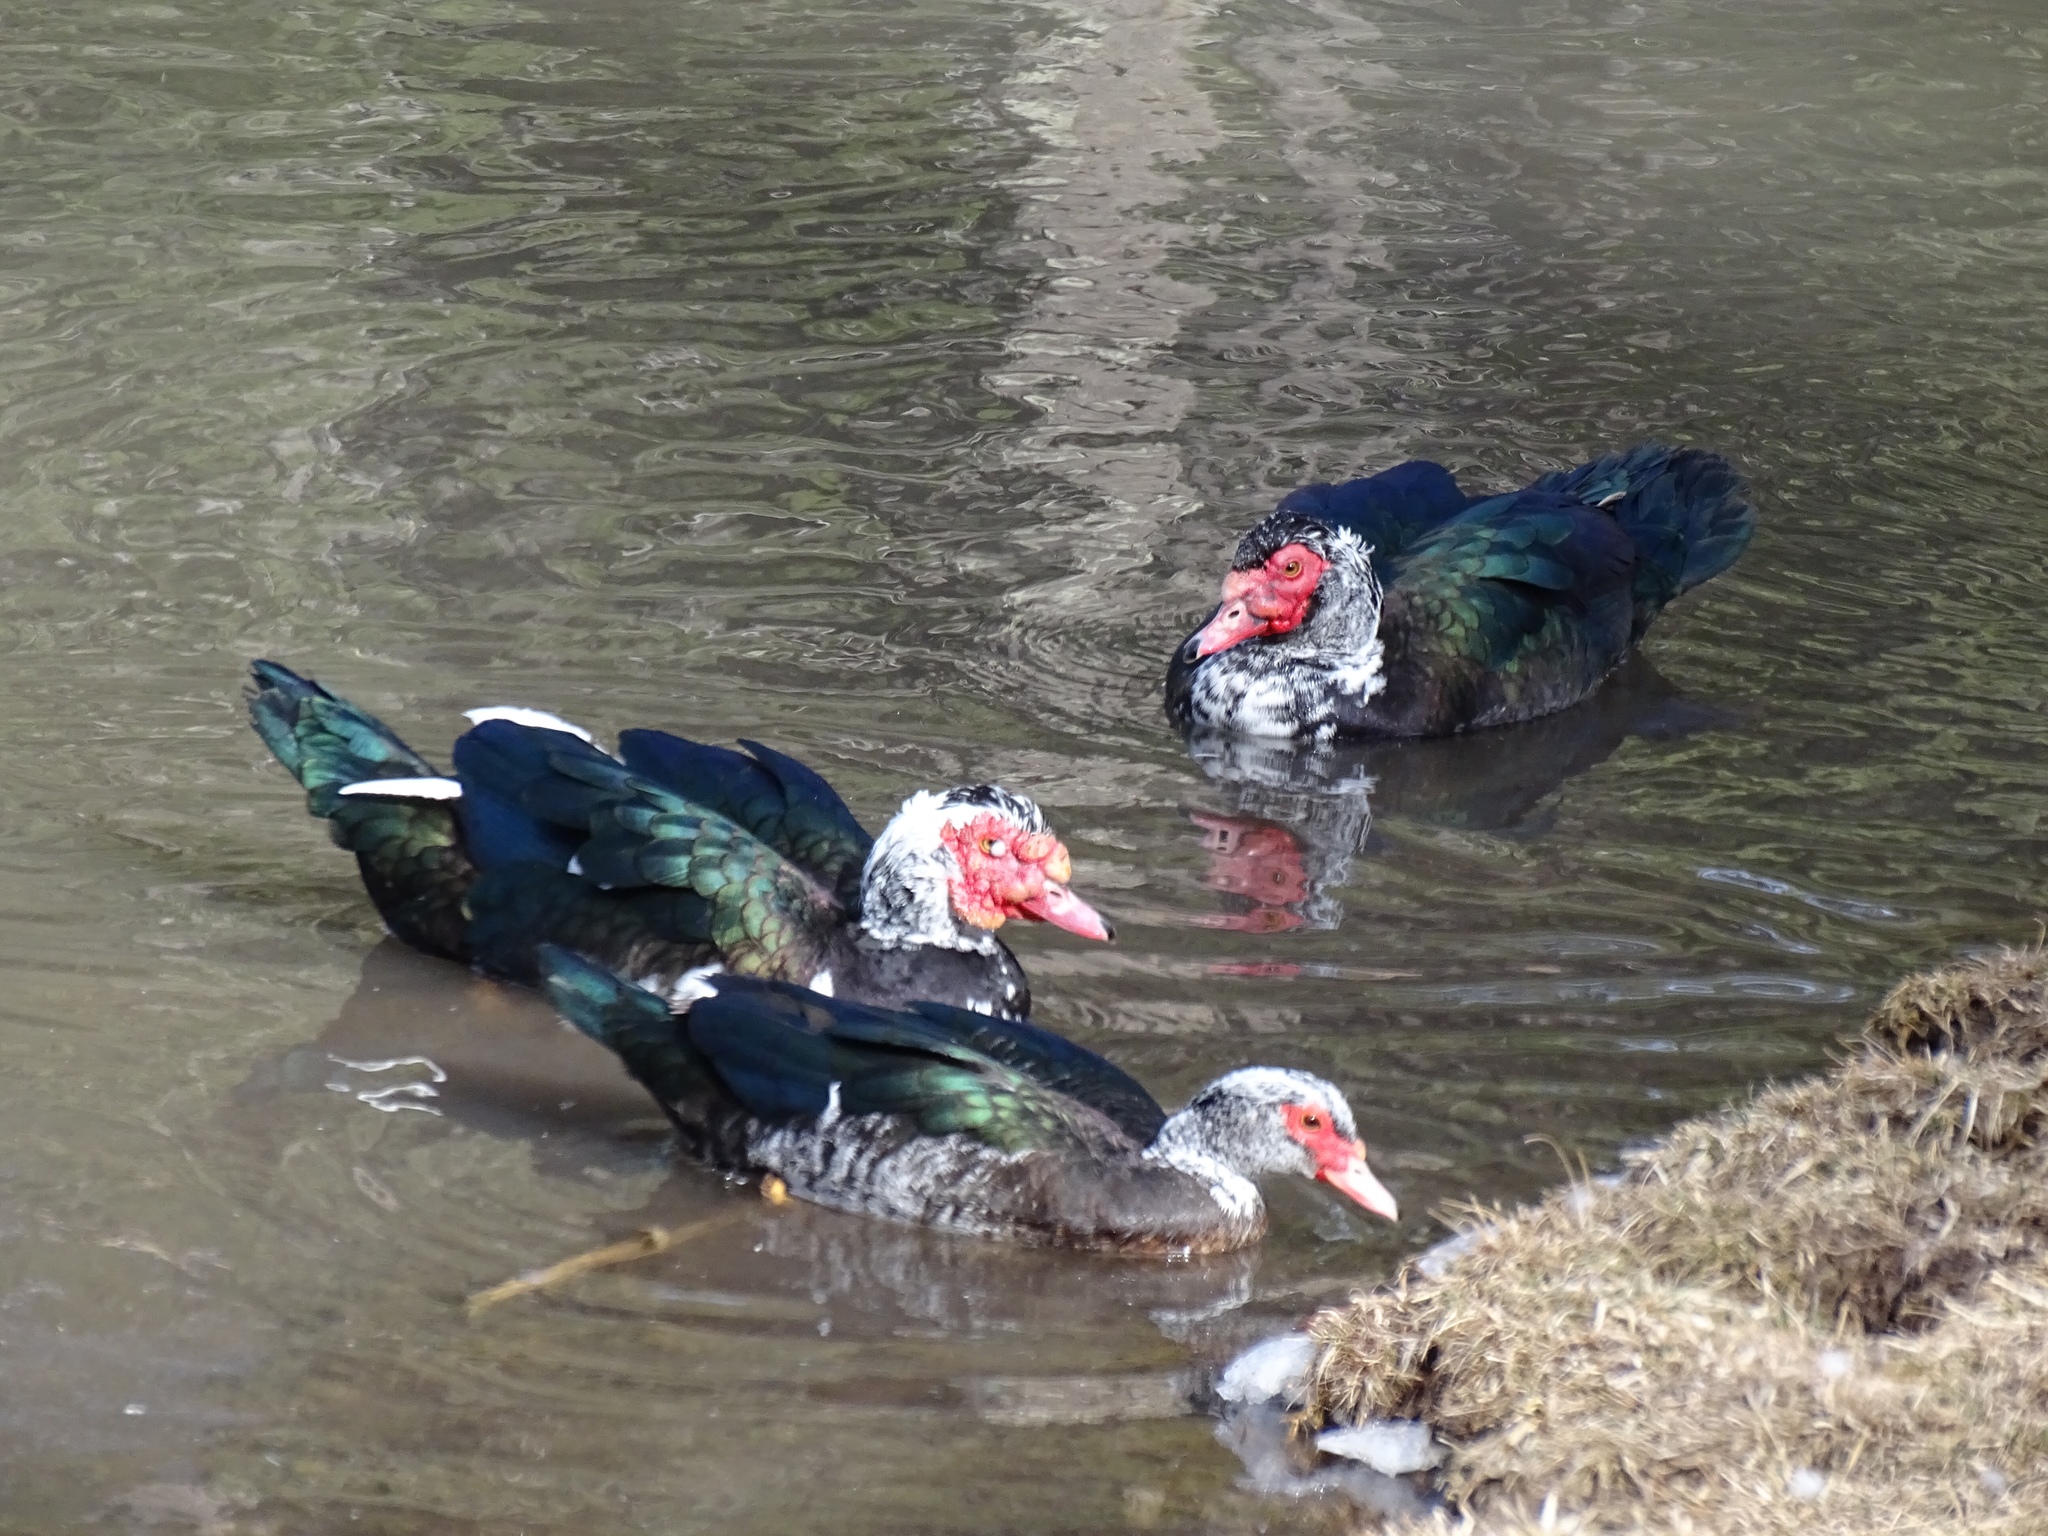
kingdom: Animalia
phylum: Chordata
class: Aves
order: Anseriformes
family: Anatidae
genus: Cairina
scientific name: Cairina moschata
